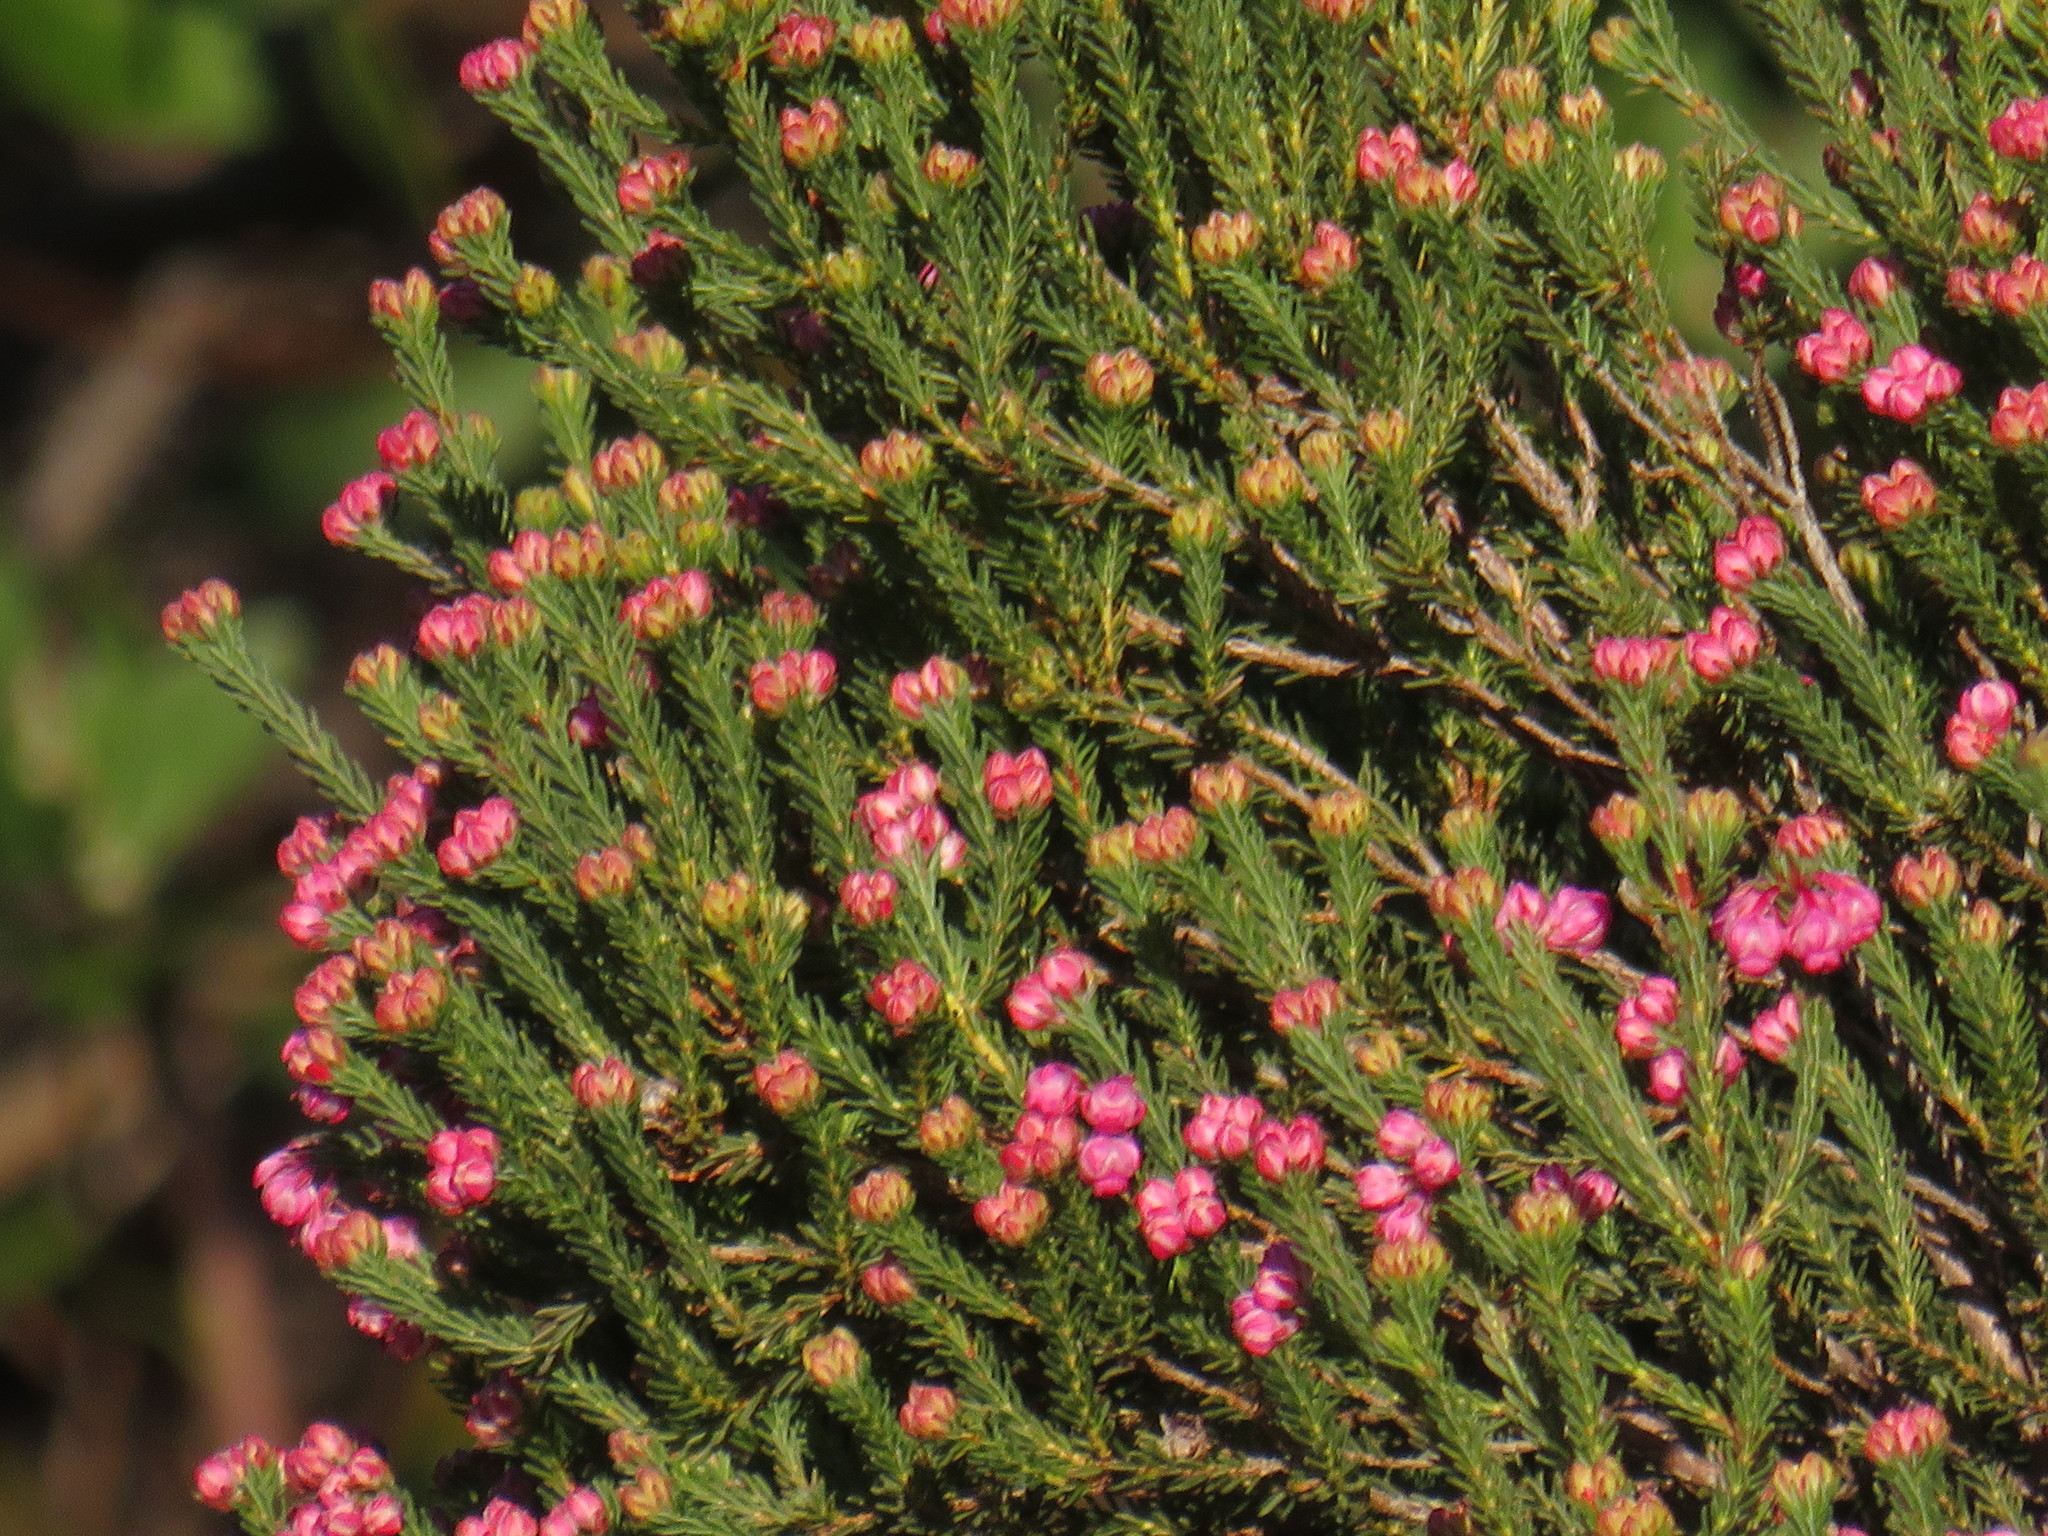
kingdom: Plantae
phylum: Tracheophyta
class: Magnoliopsida
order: Ericales
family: Ericaceae
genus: Erica
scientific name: Erica baccans
